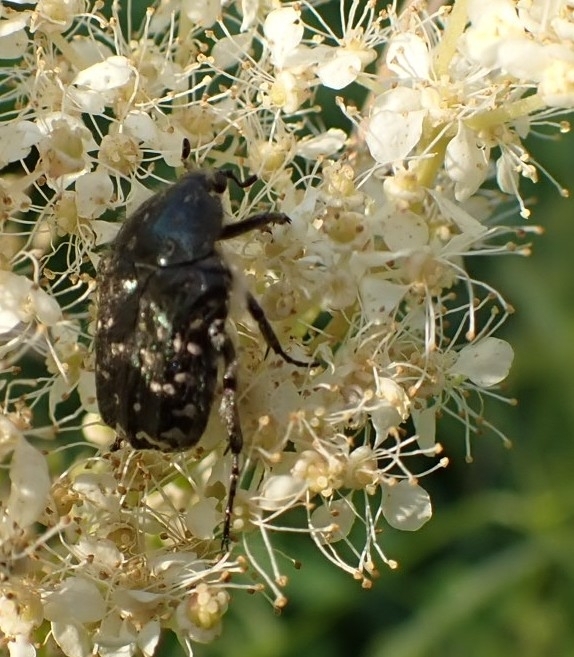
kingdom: Animalia
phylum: Arthropoda
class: Insecta
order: Coleoptera
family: Scarabaeidae
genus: Oxythyrea
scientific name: Oxythyrea funesta
